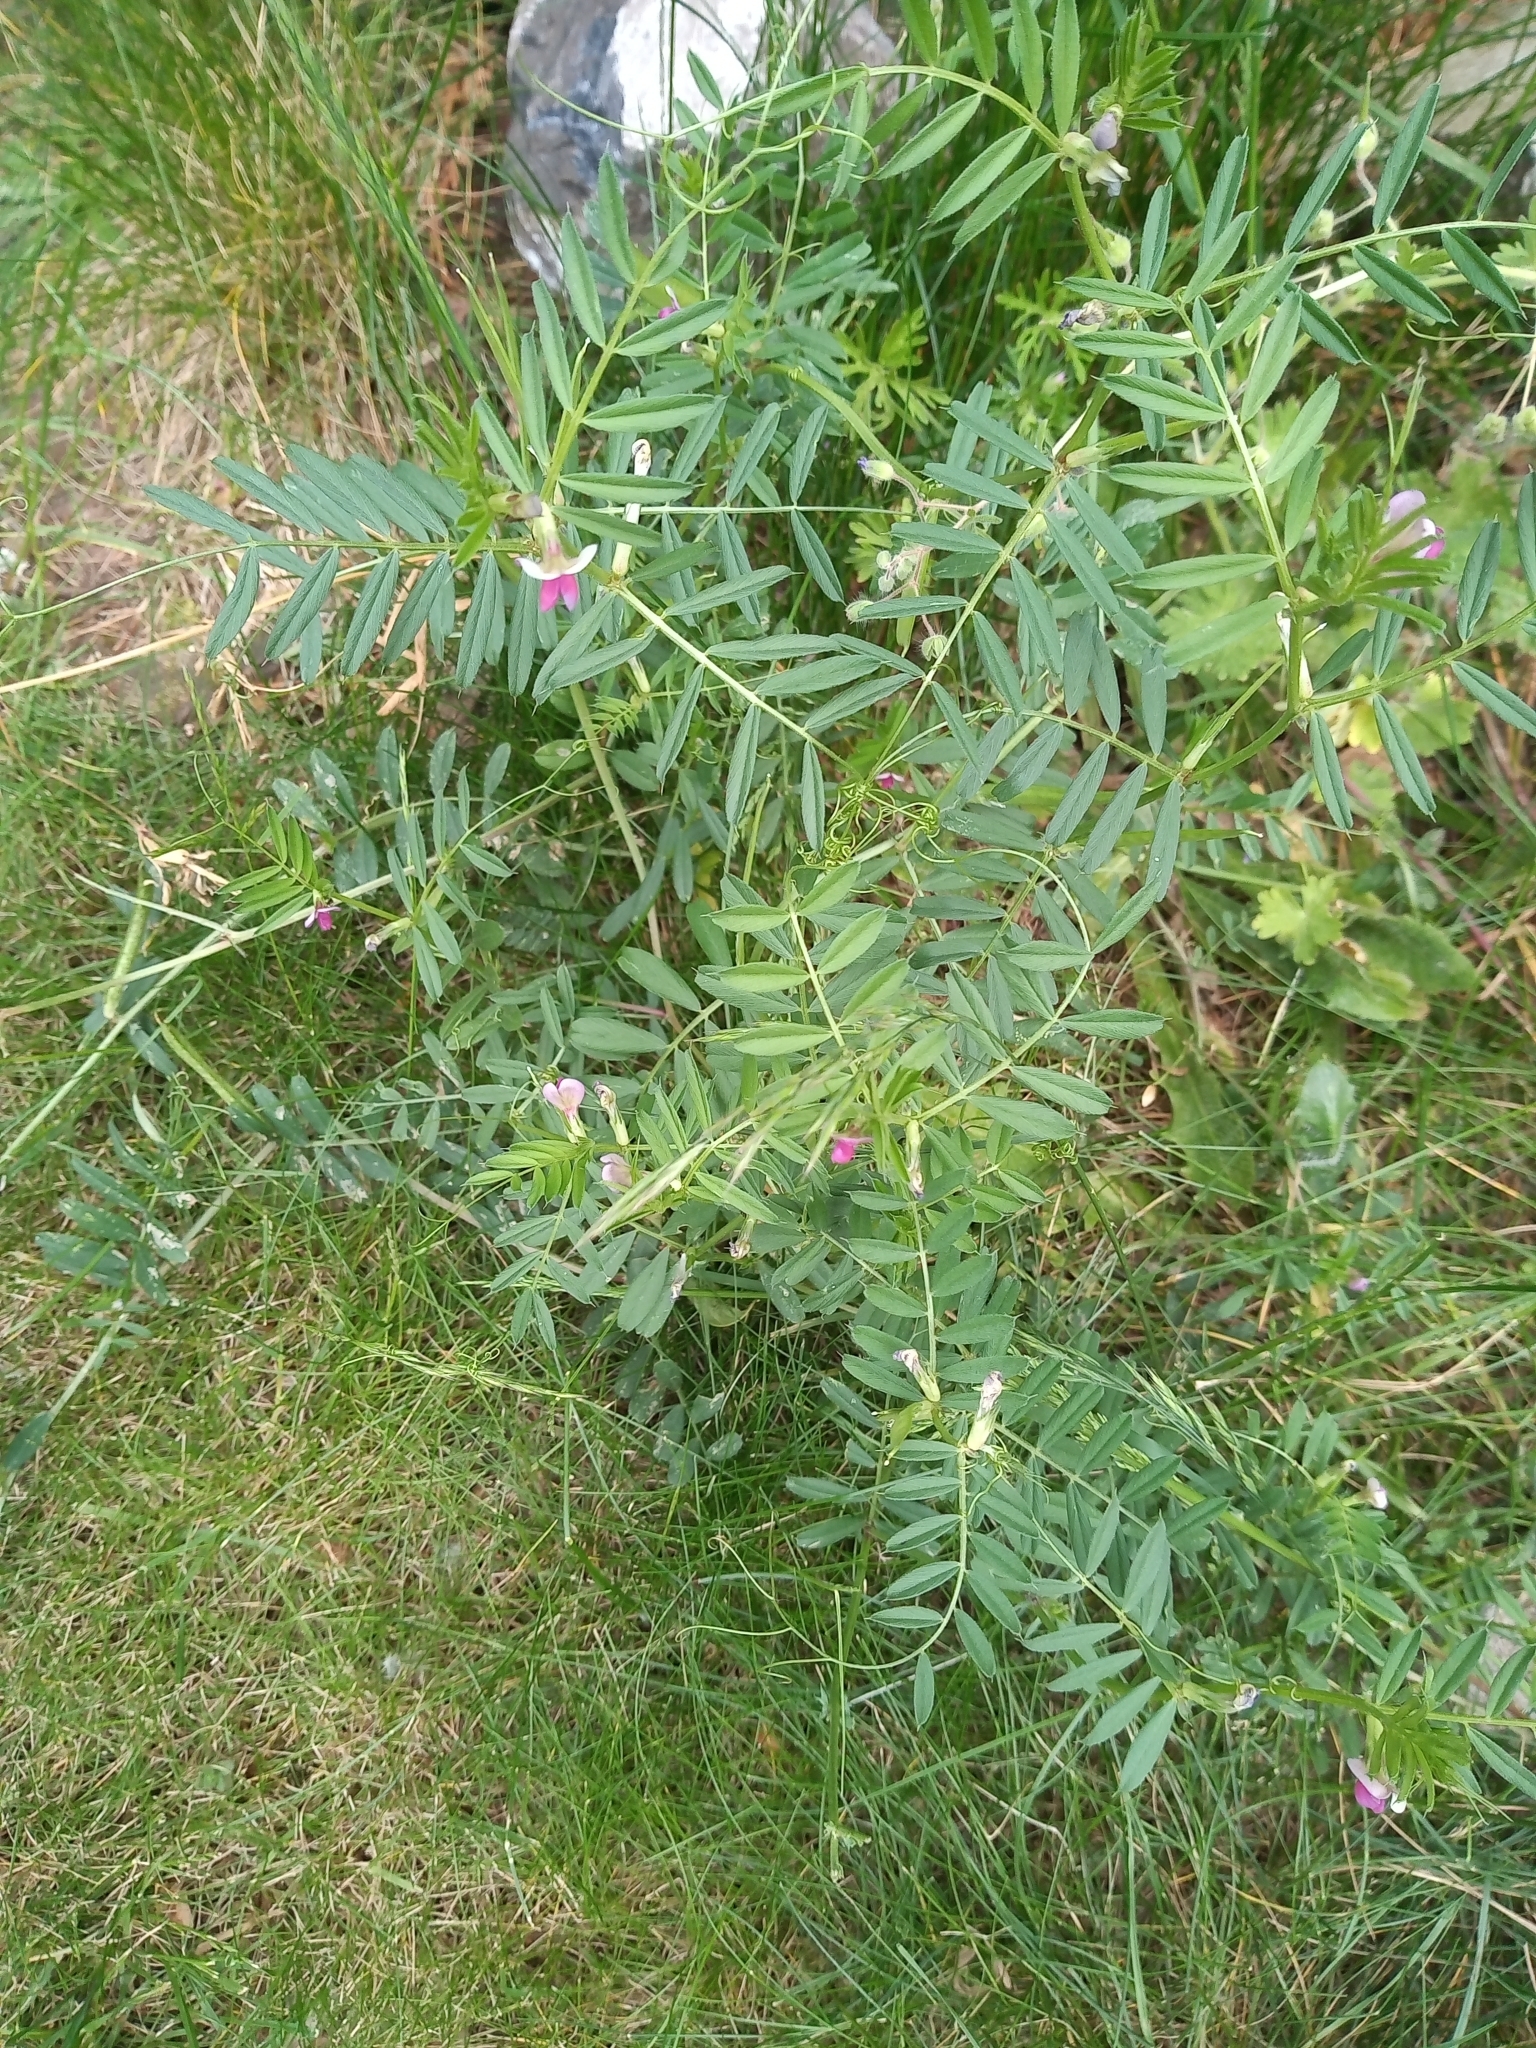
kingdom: Plantae
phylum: Tracheophyta
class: Magnoliopsida
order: Fabales
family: Fabaceae
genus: Vicia
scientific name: Vicia sativa
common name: Garden vetch
